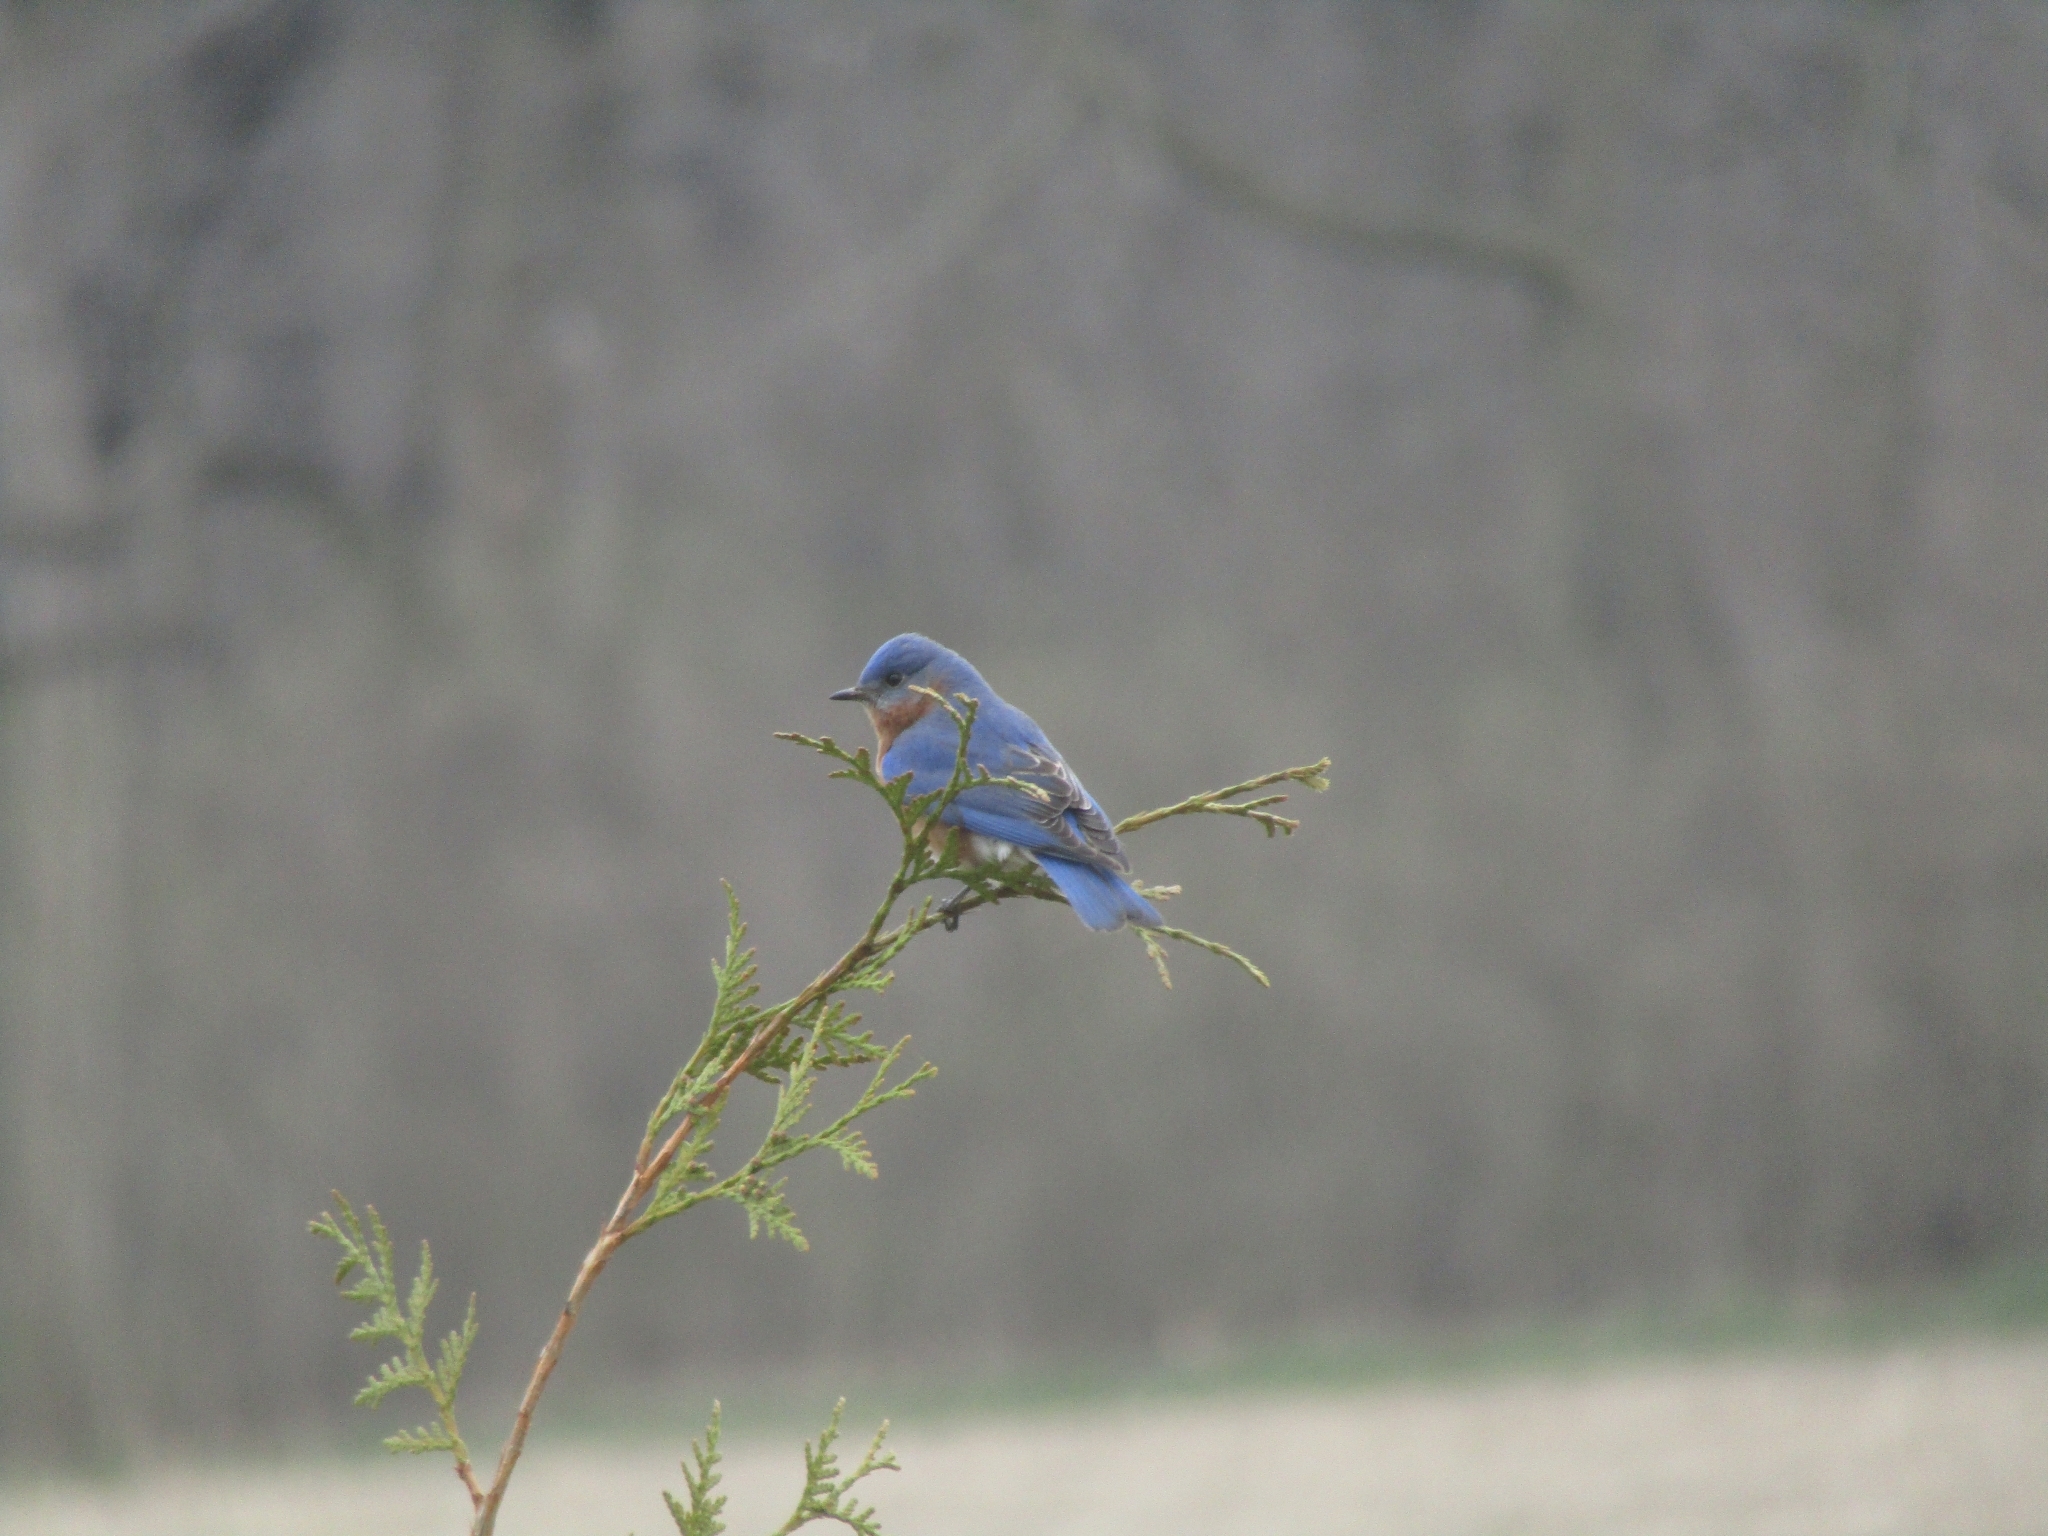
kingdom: Animalia
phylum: Chordata
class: Aves
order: Passeriformes
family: Turdidae
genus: Sialia
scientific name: Sialia sialis
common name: Eastern bluebird
